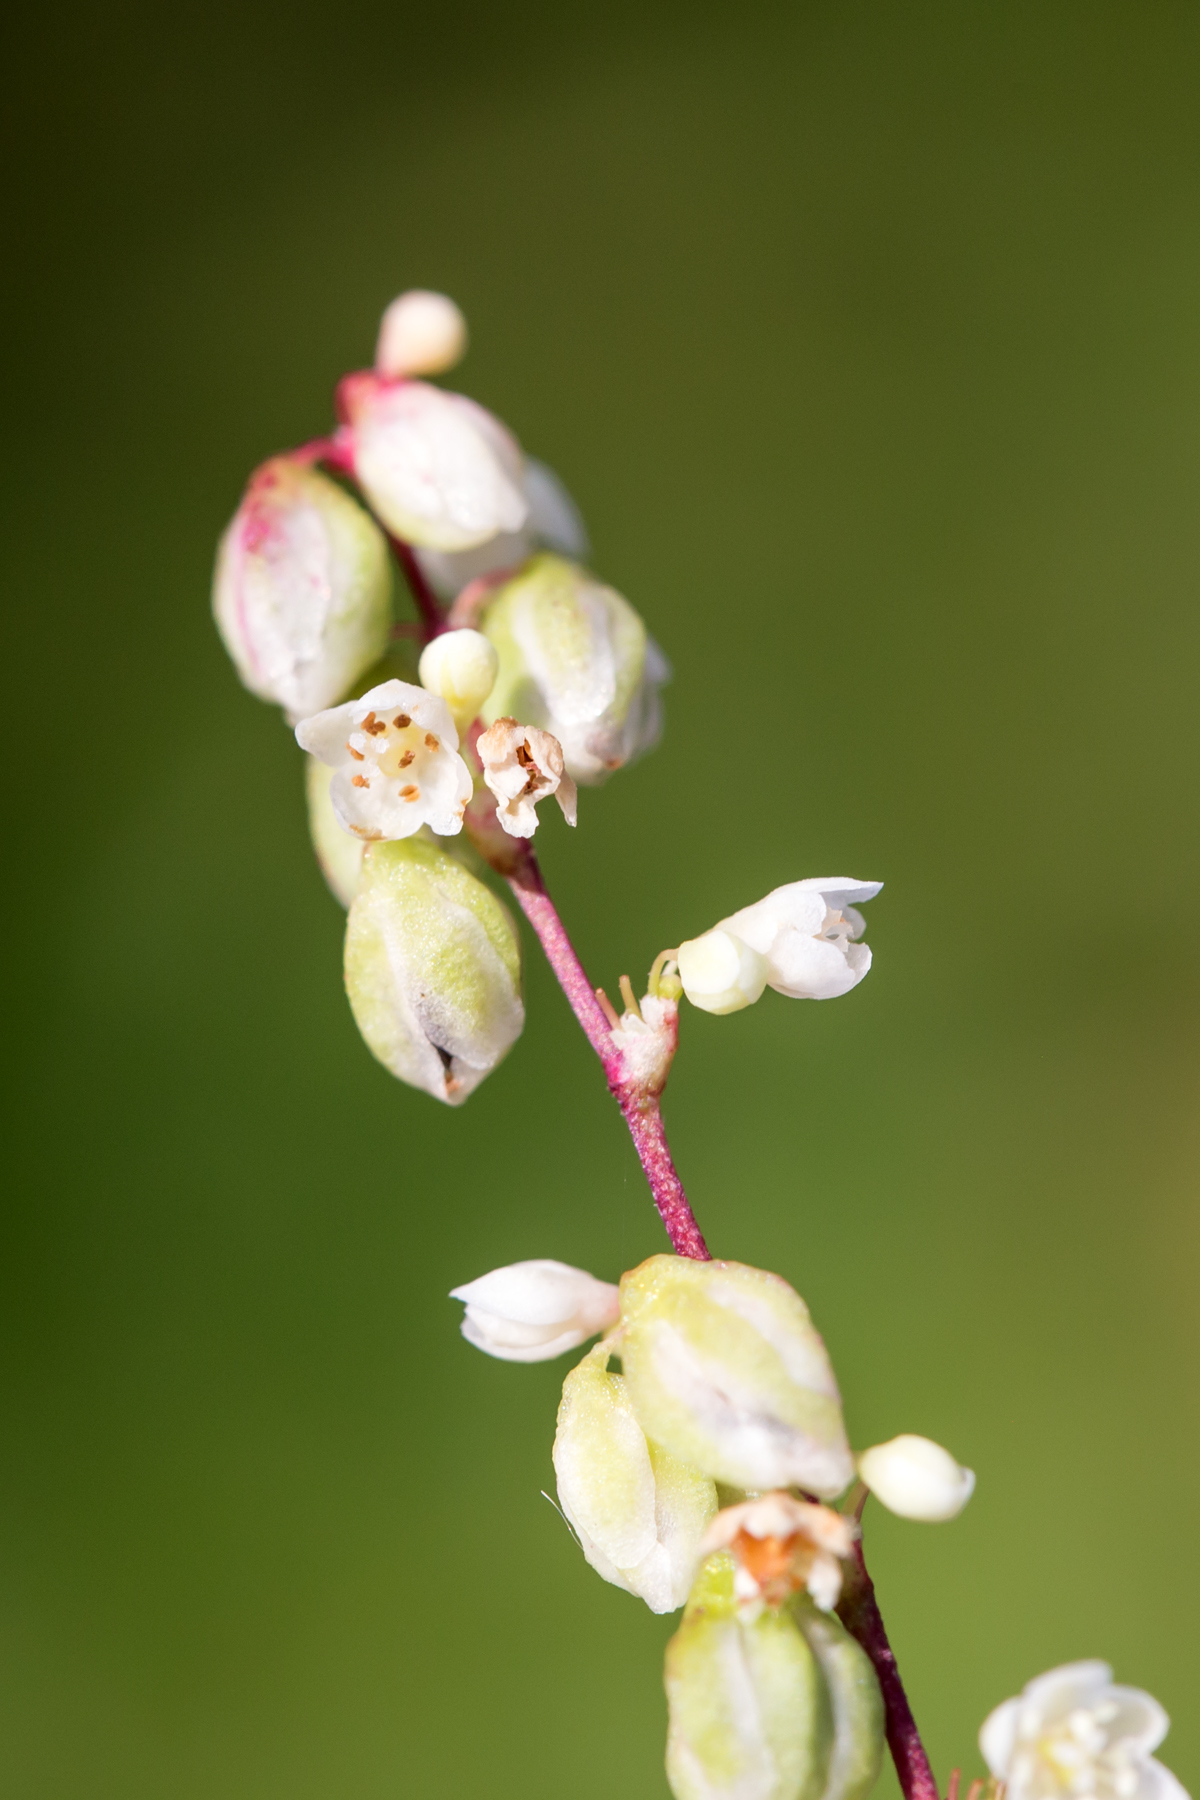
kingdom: Plantae
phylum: Tracheophyta
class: Magnoliopsida
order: Caryophyllales
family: Polygonaceae
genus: Fallopia
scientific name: Fallopia scandens
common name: Climbing false buckwheat
